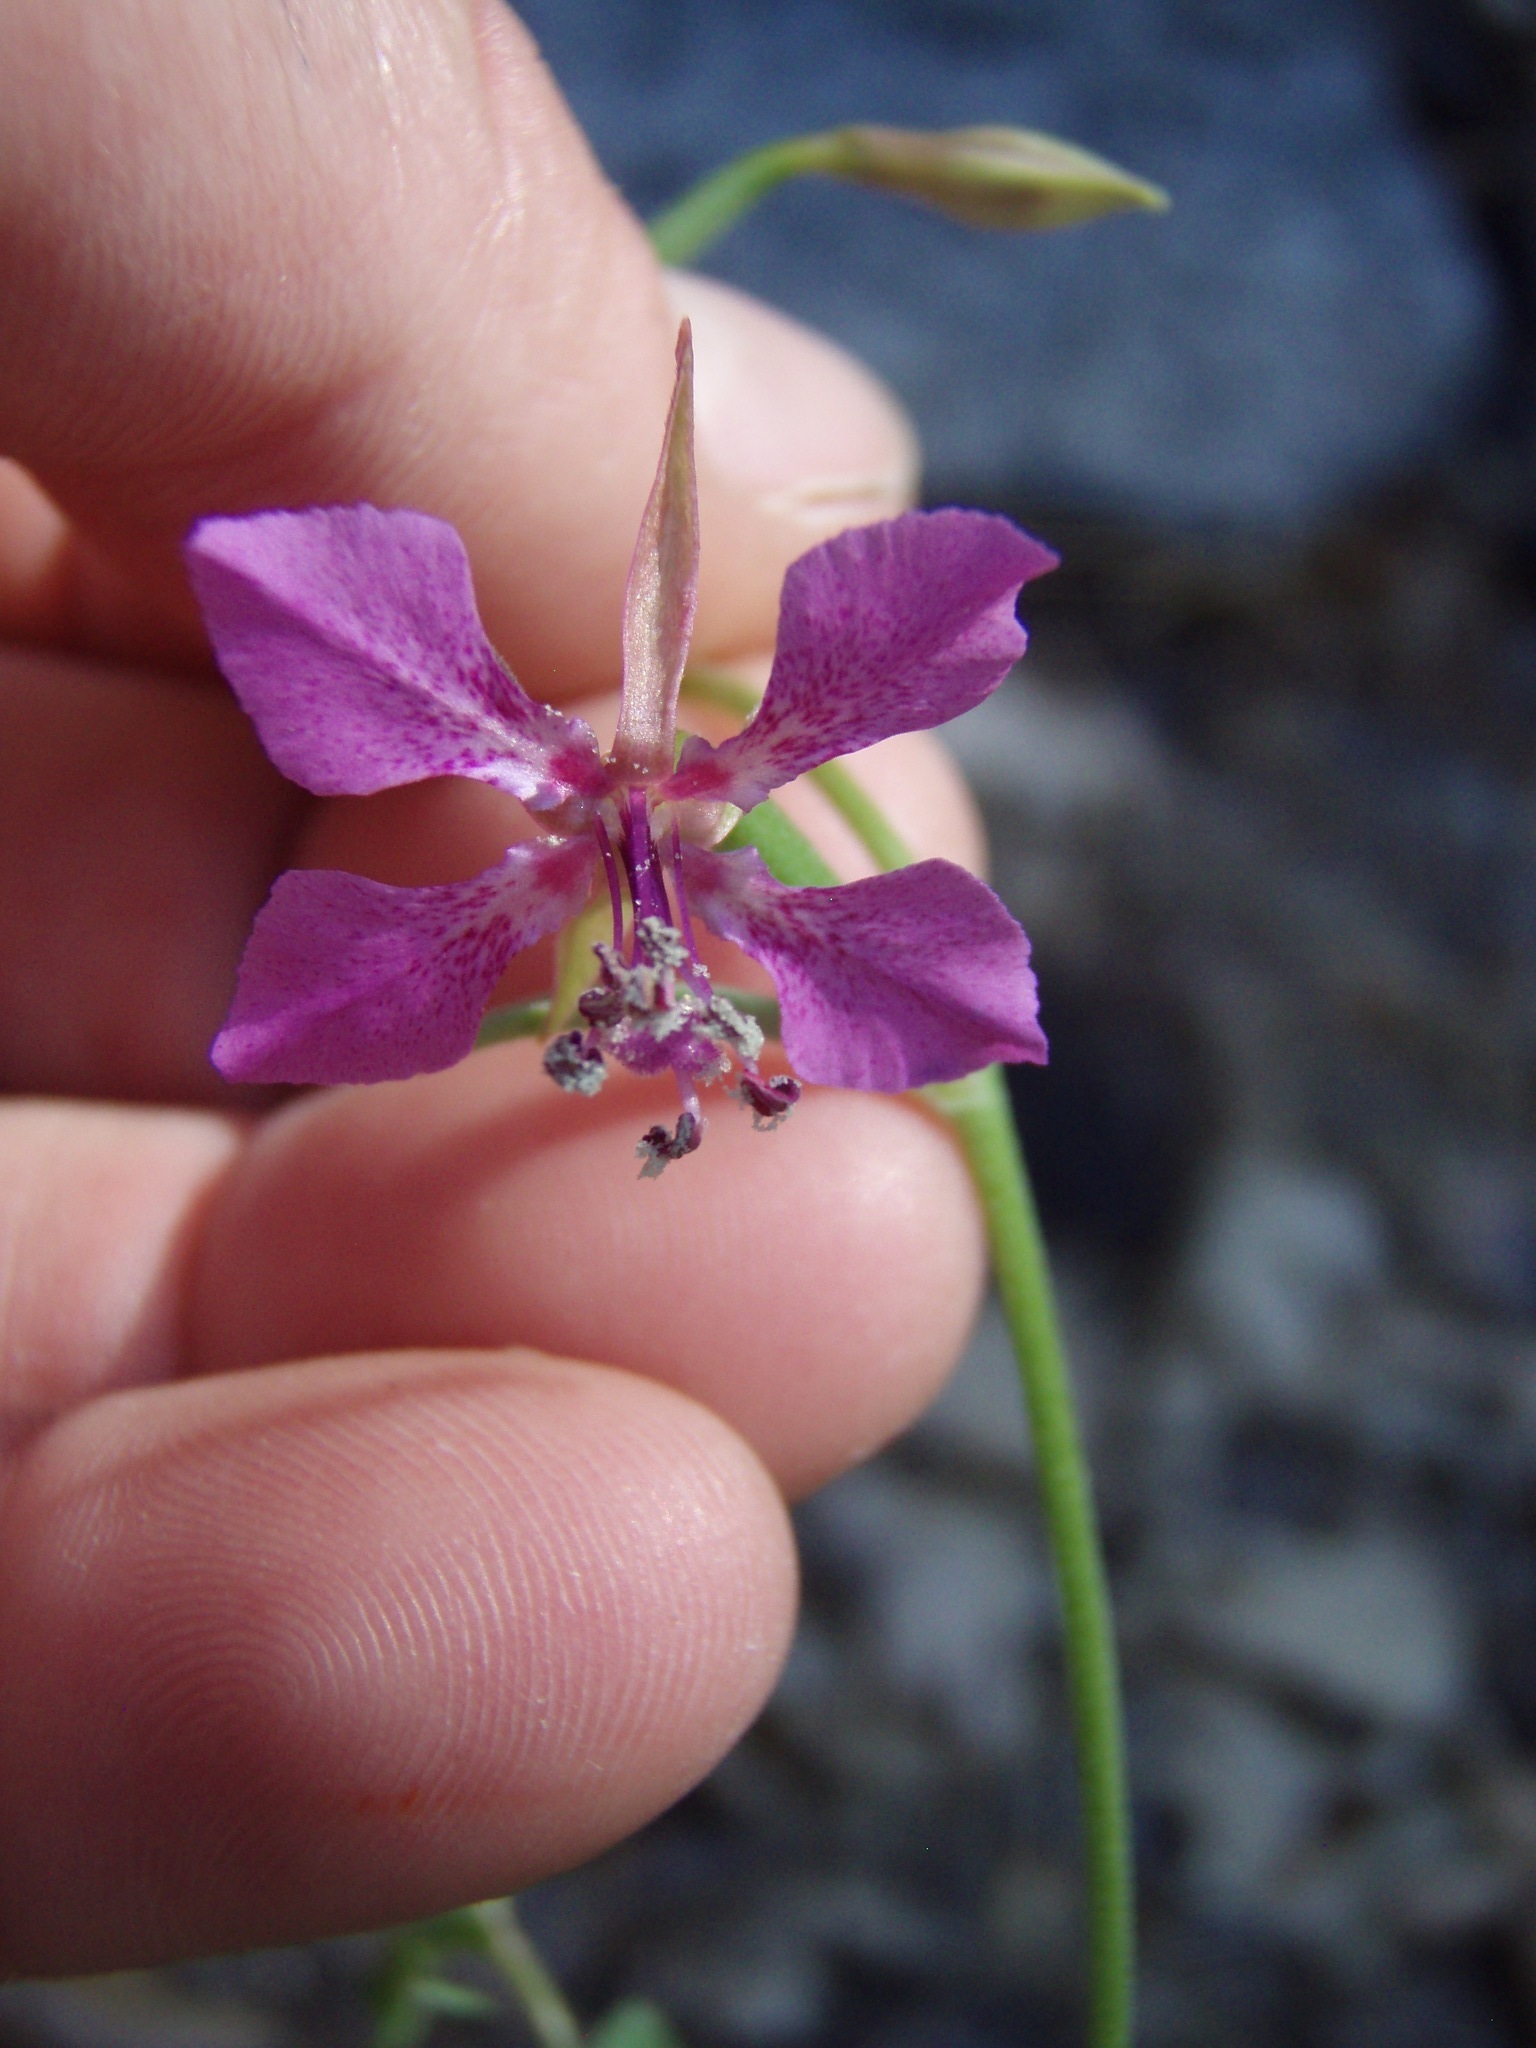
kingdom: Plantae
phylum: Tracheophyta
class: Magnoliopsida
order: Myrtales
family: Onagraceae
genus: Clarkia
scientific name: Clarkia rhomboidea
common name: Broadleaf clarkia
